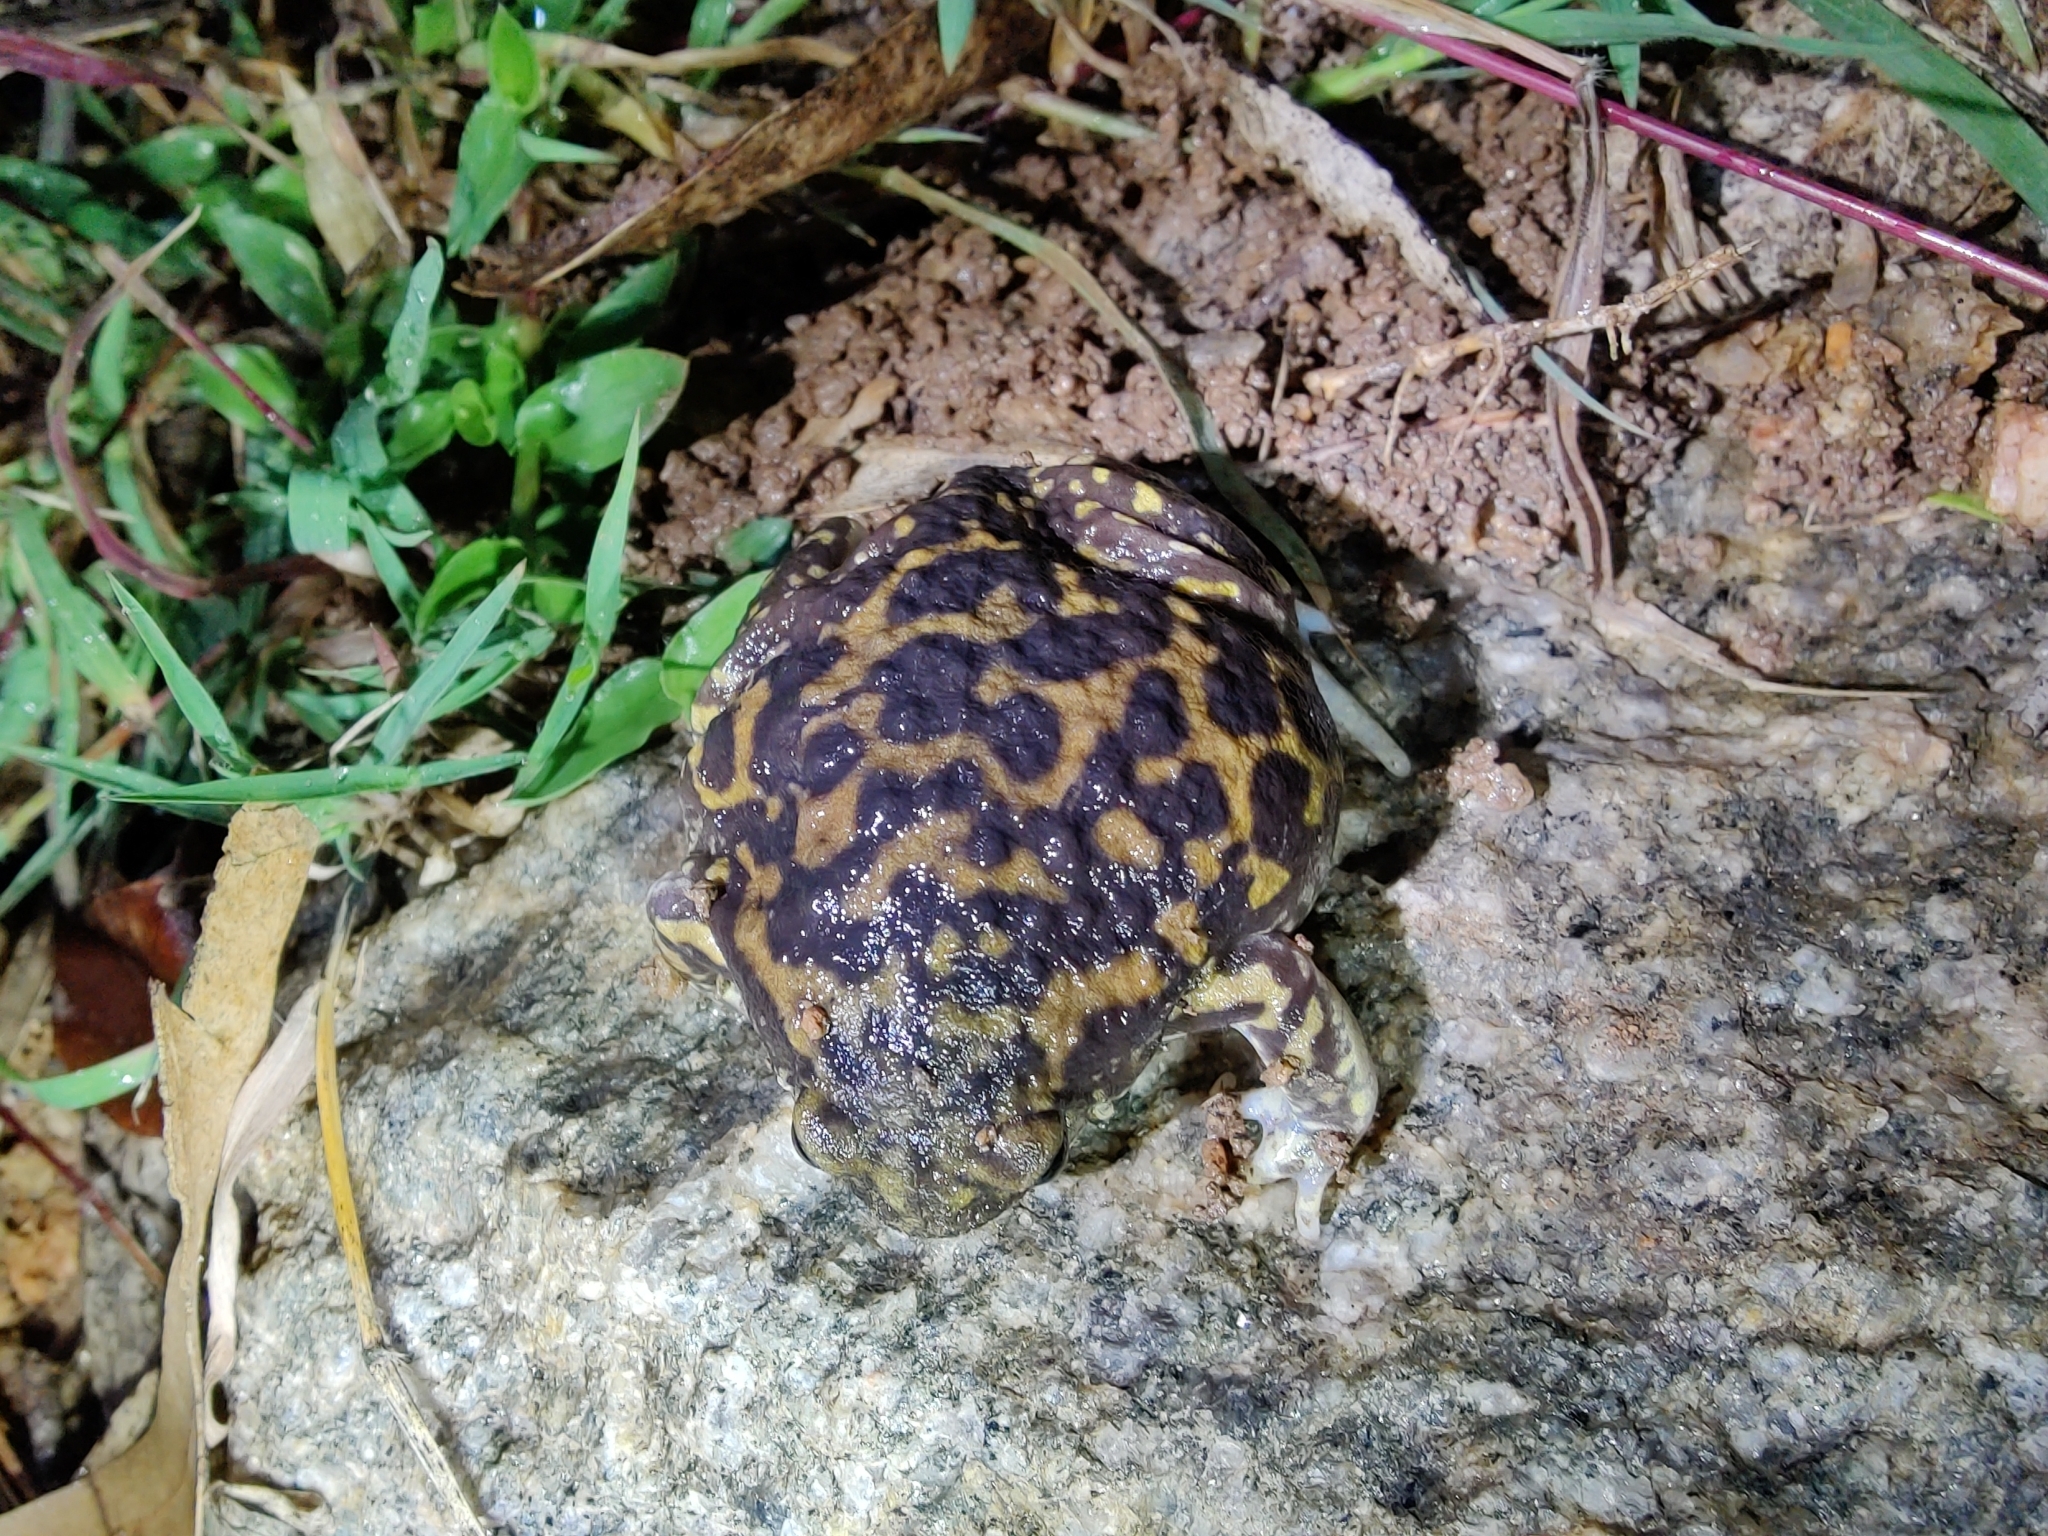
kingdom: Animalia
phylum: Chordata
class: Amphibia
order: Anura
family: Microhylidae
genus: Uperodon
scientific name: Uperodon systoma
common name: Balloon frog
